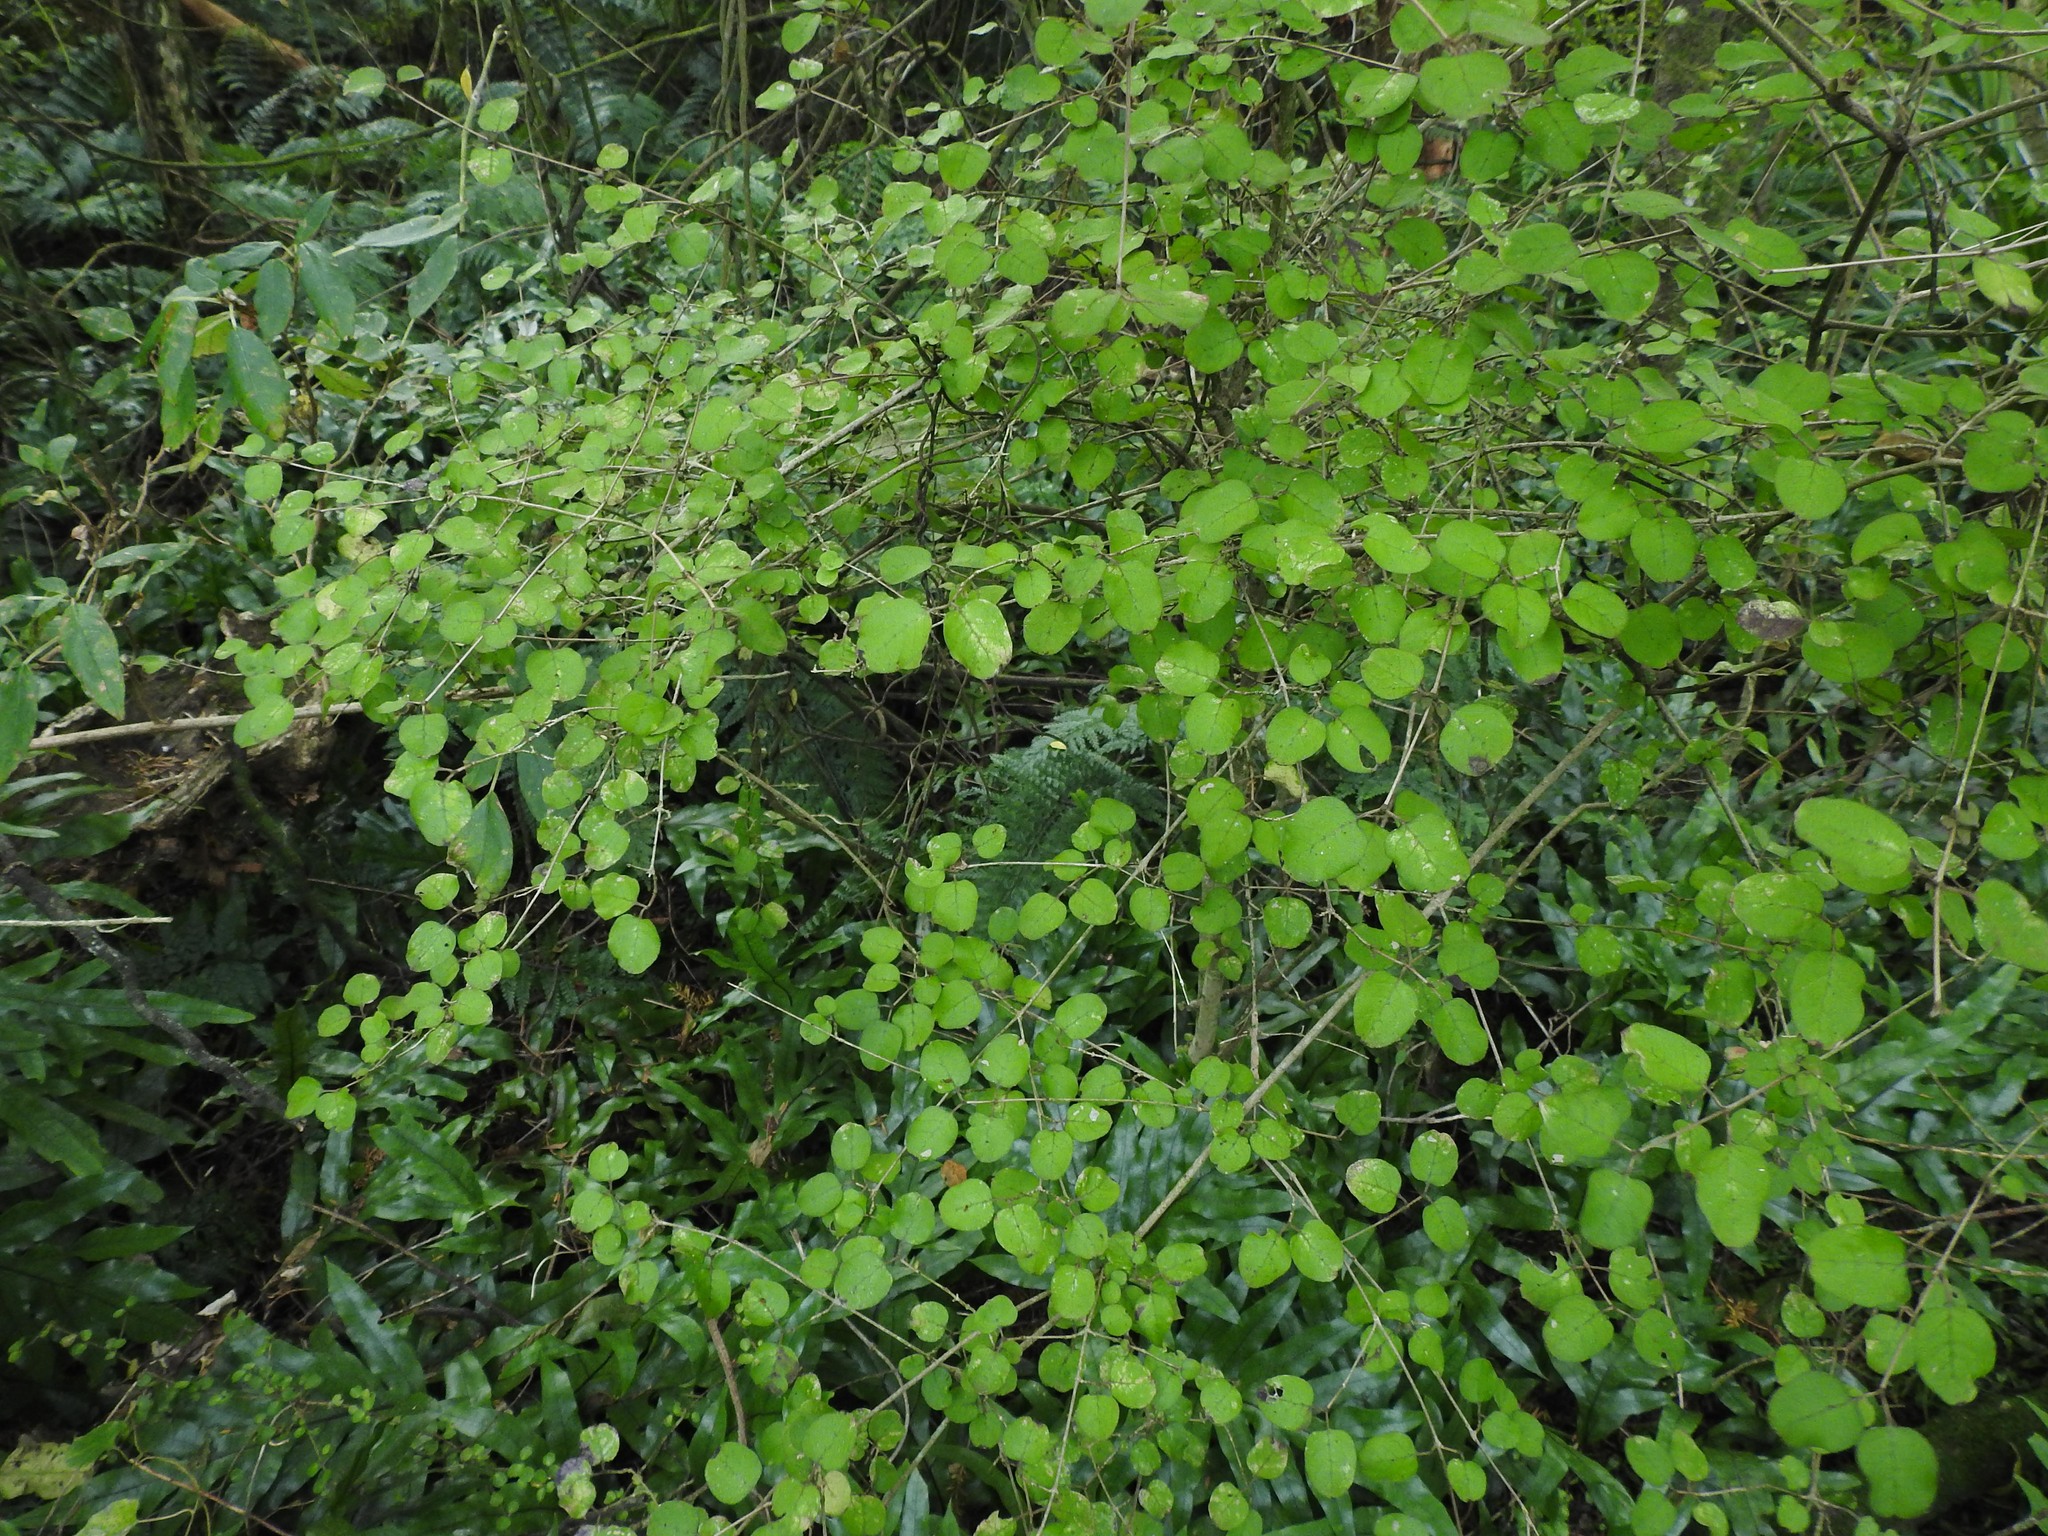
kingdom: Plantae
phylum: Tracheophyta
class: Magnoliopsida
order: Gentianales
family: Rubiaceae
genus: Coprosma
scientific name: Coprosma rotundifolia
